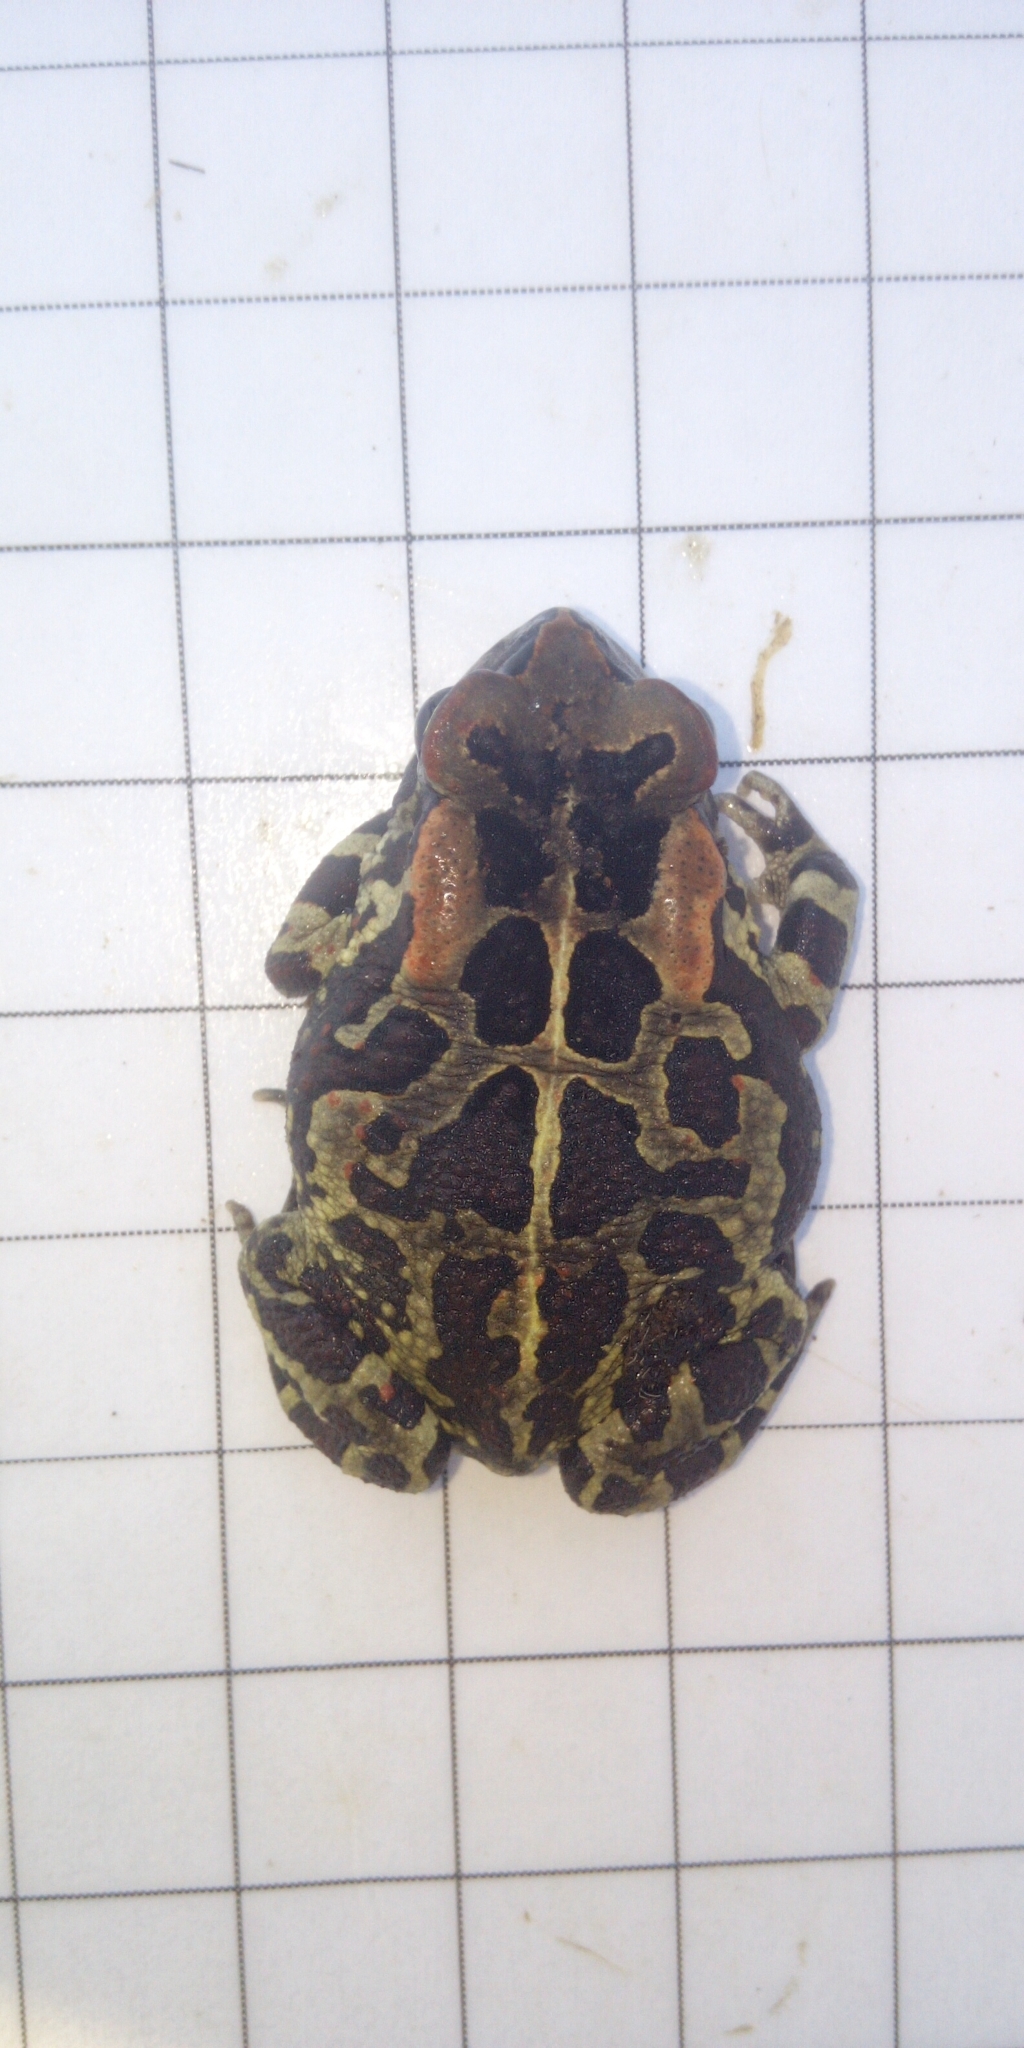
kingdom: Animalia
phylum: Chordata
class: Amphibia
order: Anura
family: Bufonidae
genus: Sclerophrys
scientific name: Sclerophrys pantherina
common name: Panther toad
